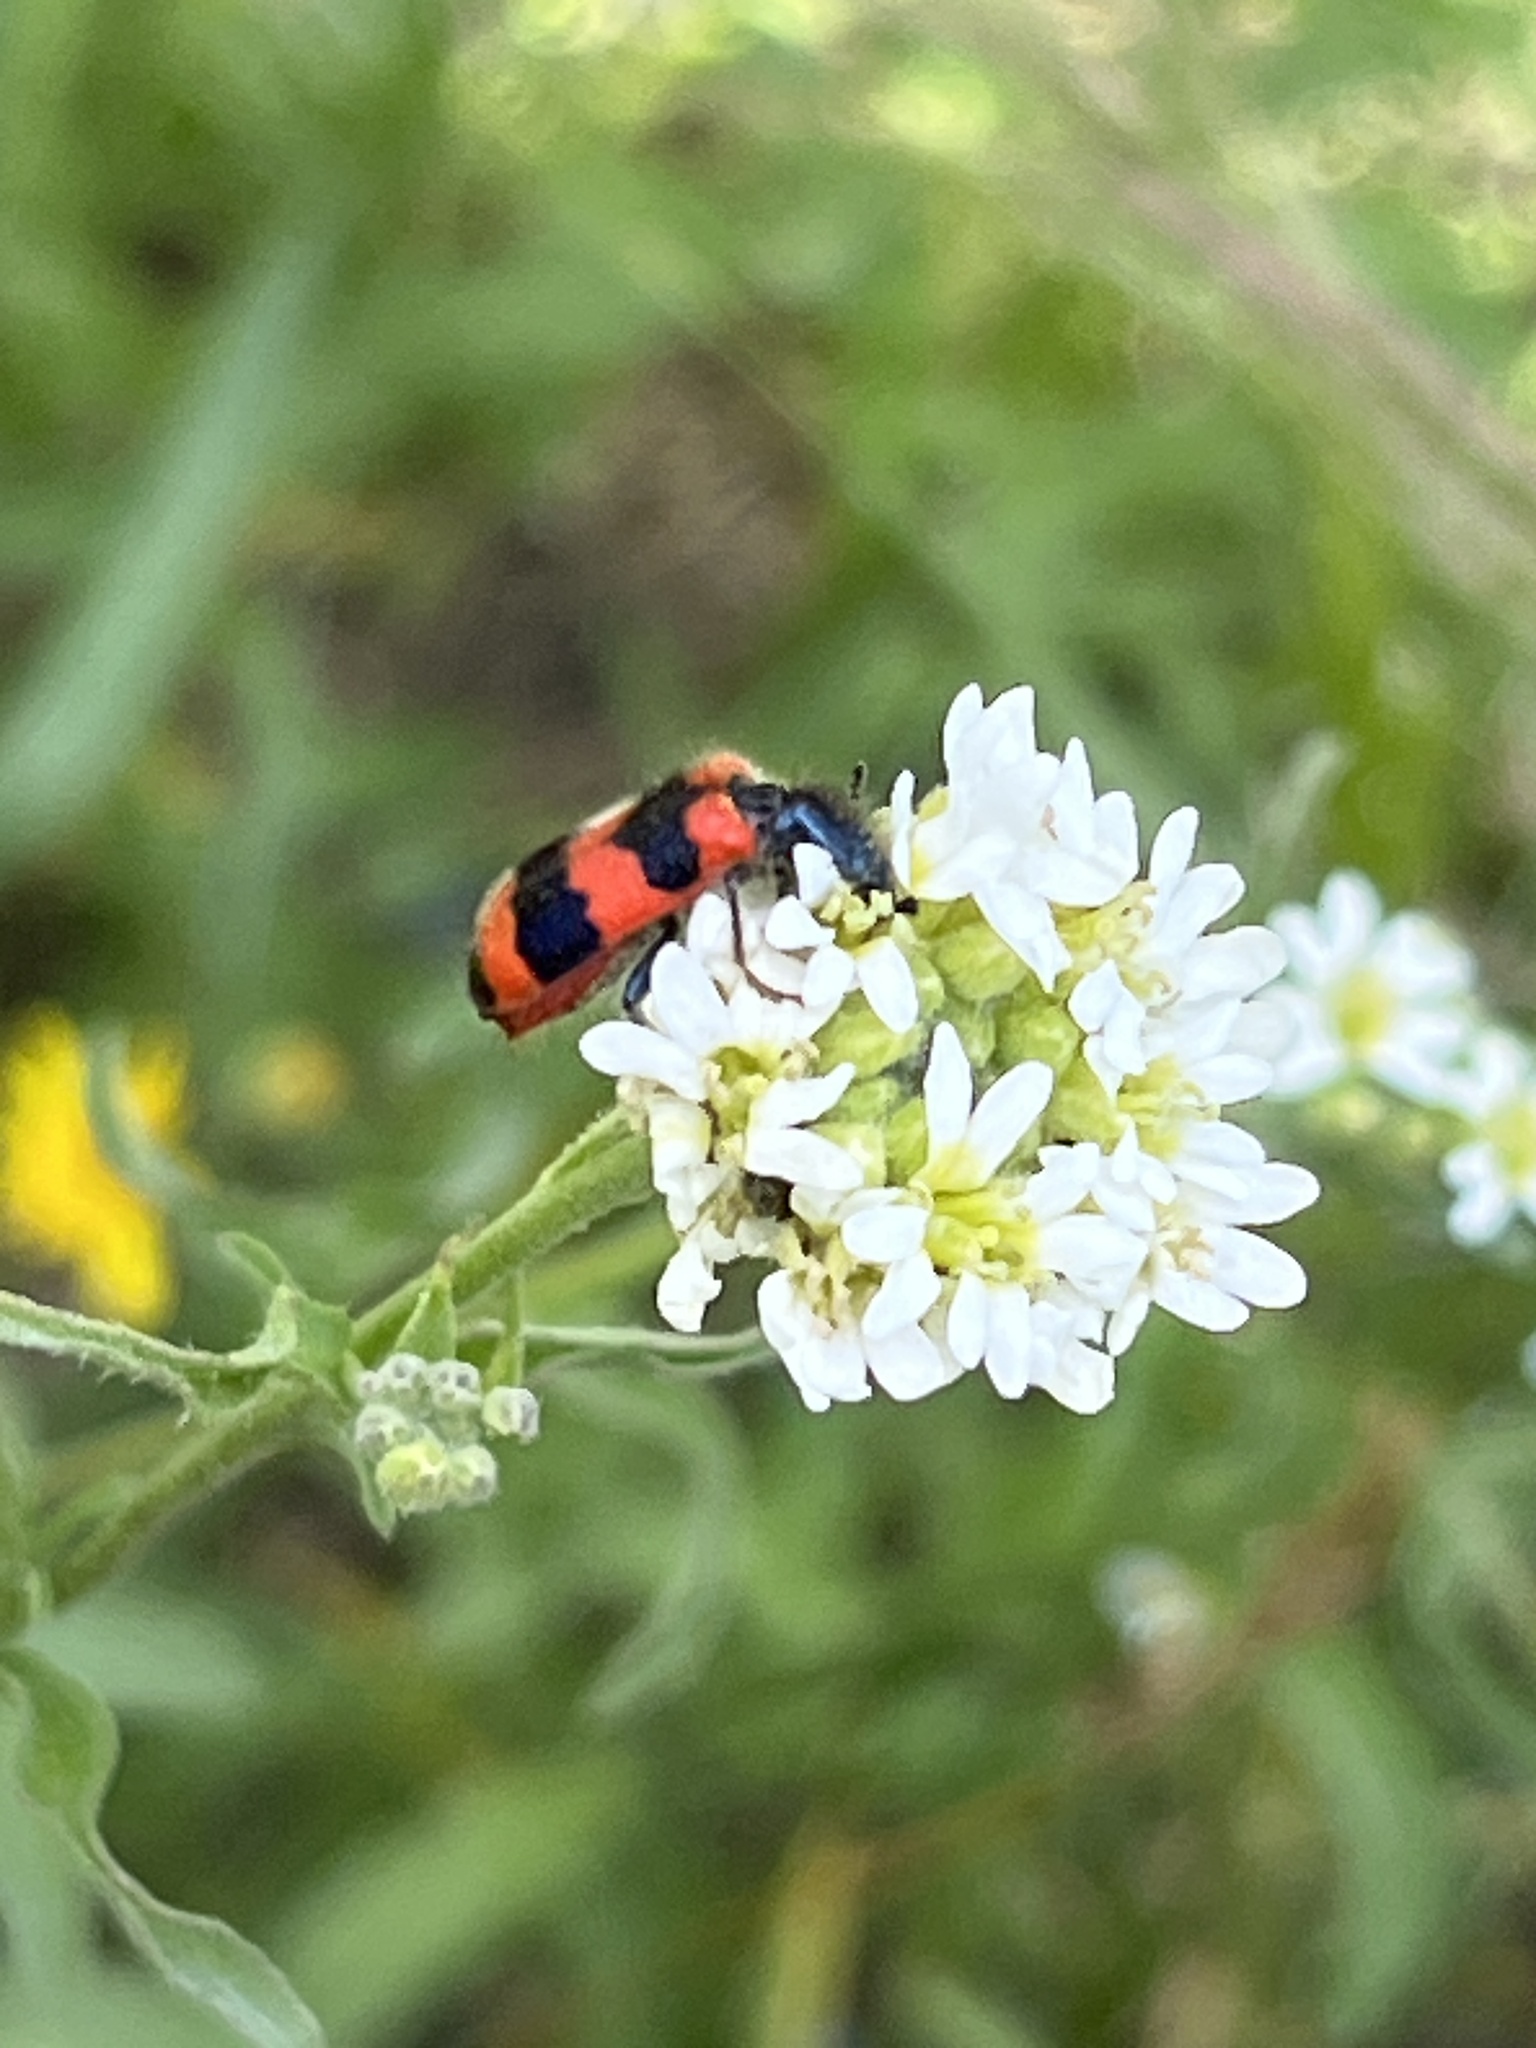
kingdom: Animalia
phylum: Arthropoda
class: Insecta
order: Coleoptera
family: Cleridae
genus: Trichodes
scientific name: Trichodes apiarius
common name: Bee-eating beetle
